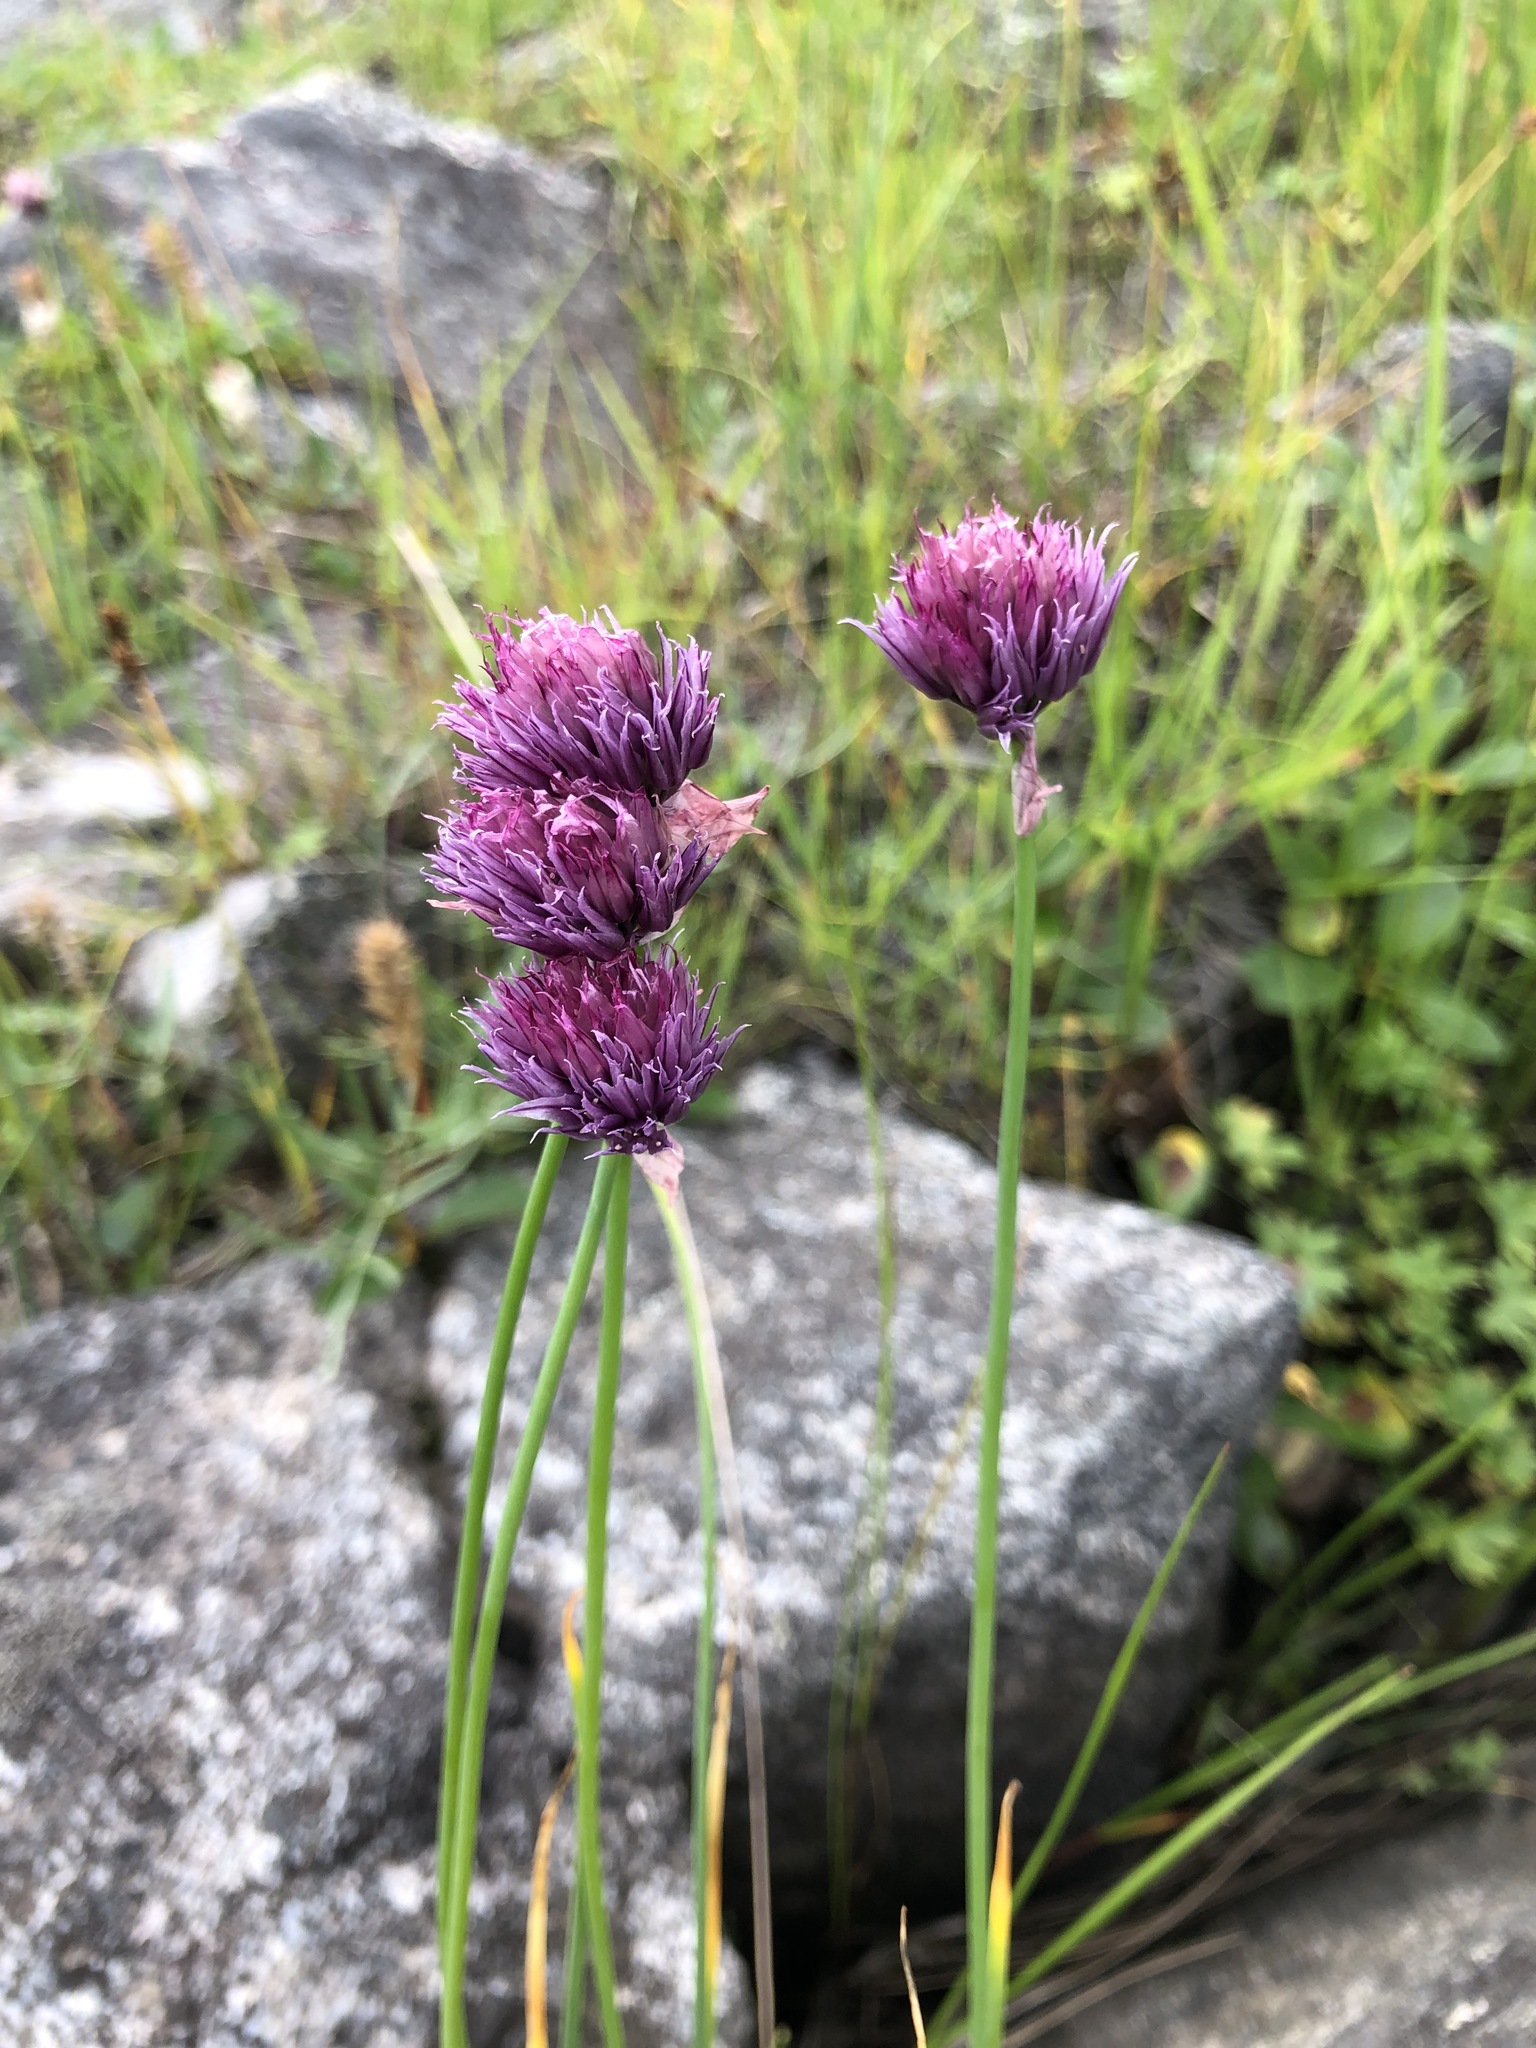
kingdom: Plantae
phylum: Tracheophyta
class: Liliopsida
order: Asparagales
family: Amaryllidaceae
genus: Allium
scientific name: Allium schoenoprasum
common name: Chives
